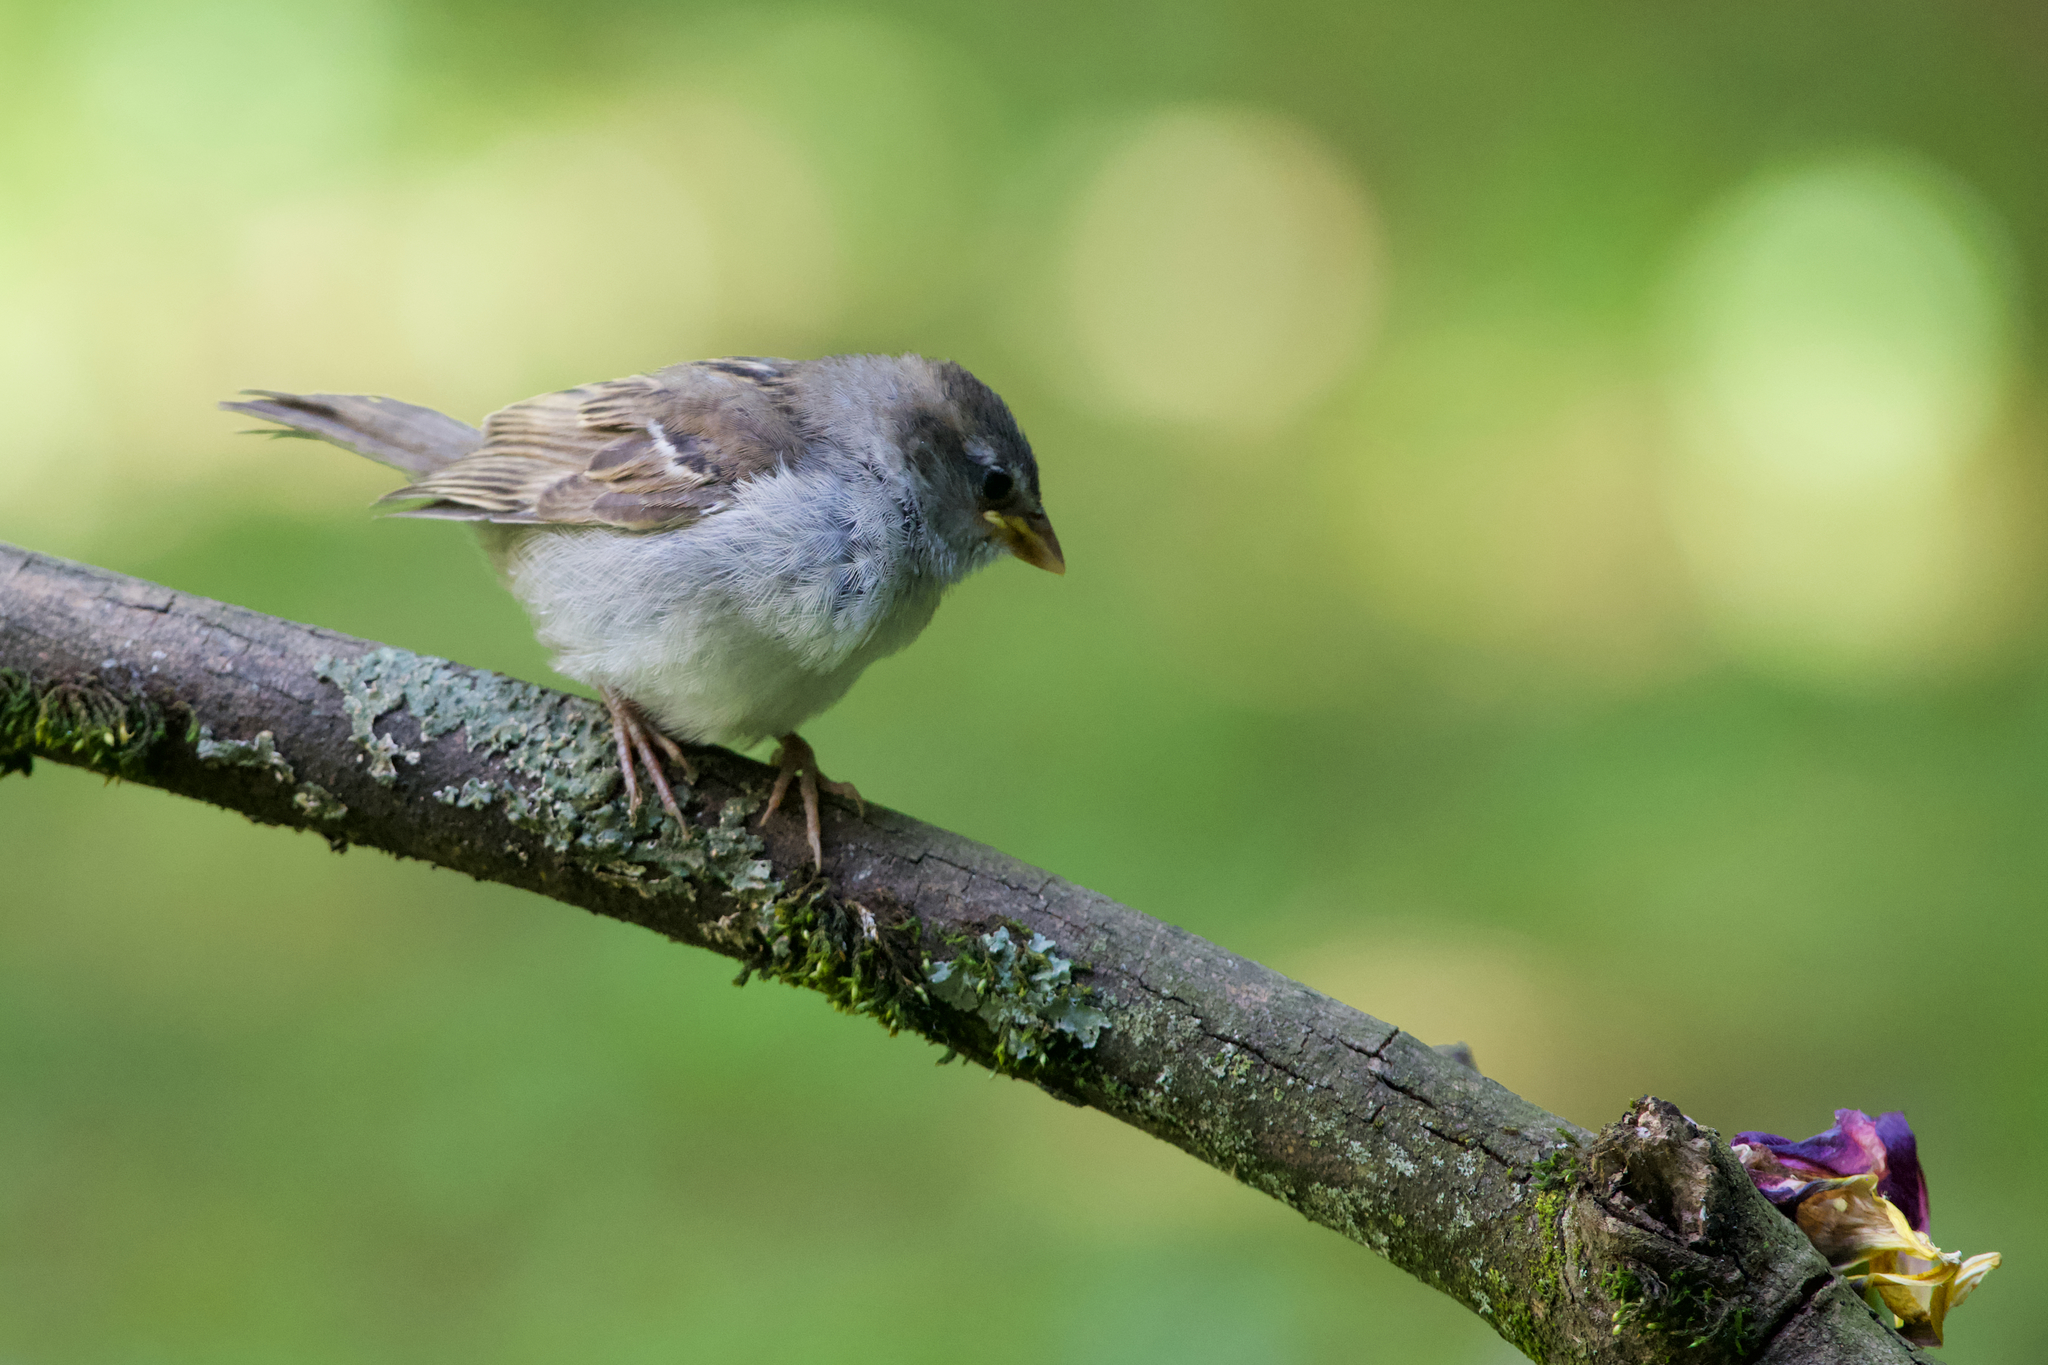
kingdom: Animalia
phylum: Chordata
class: Aves
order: Passeriformes
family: Passeridae
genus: Passer
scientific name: Passer domesticus
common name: House sparrow
